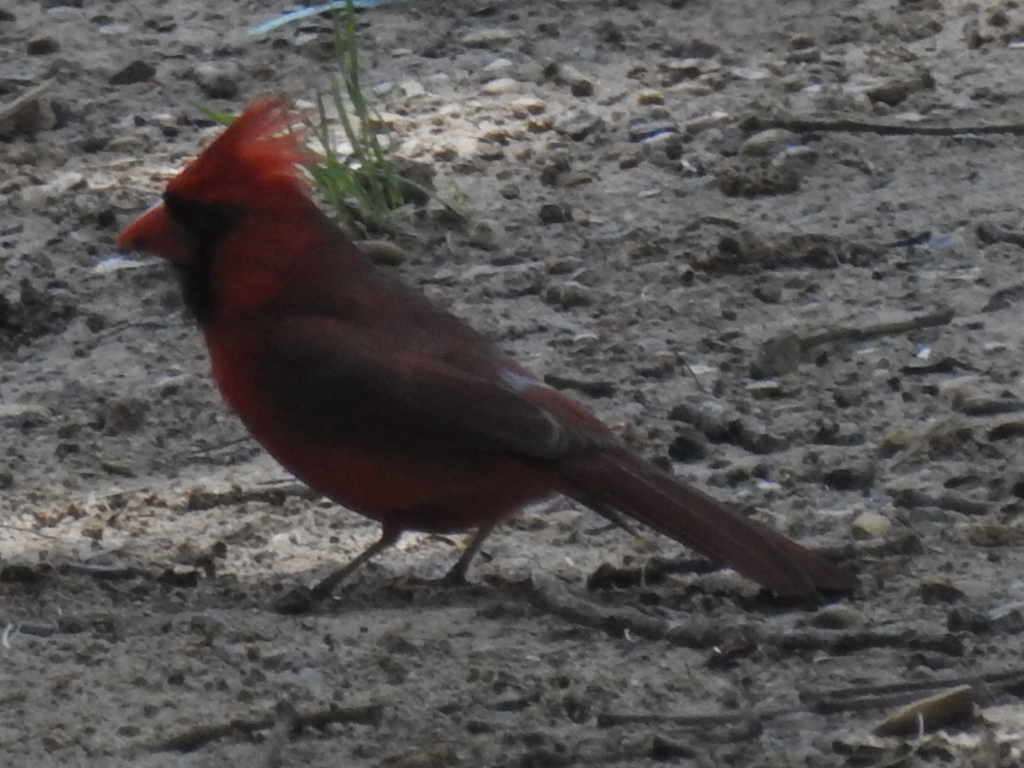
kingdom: Animalia
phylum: Chordata
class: Aves
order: Passeriformes
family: Cardinalidae
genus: Cardinalis
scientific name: Cardinalis cardinalis
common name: Northern cardinal
